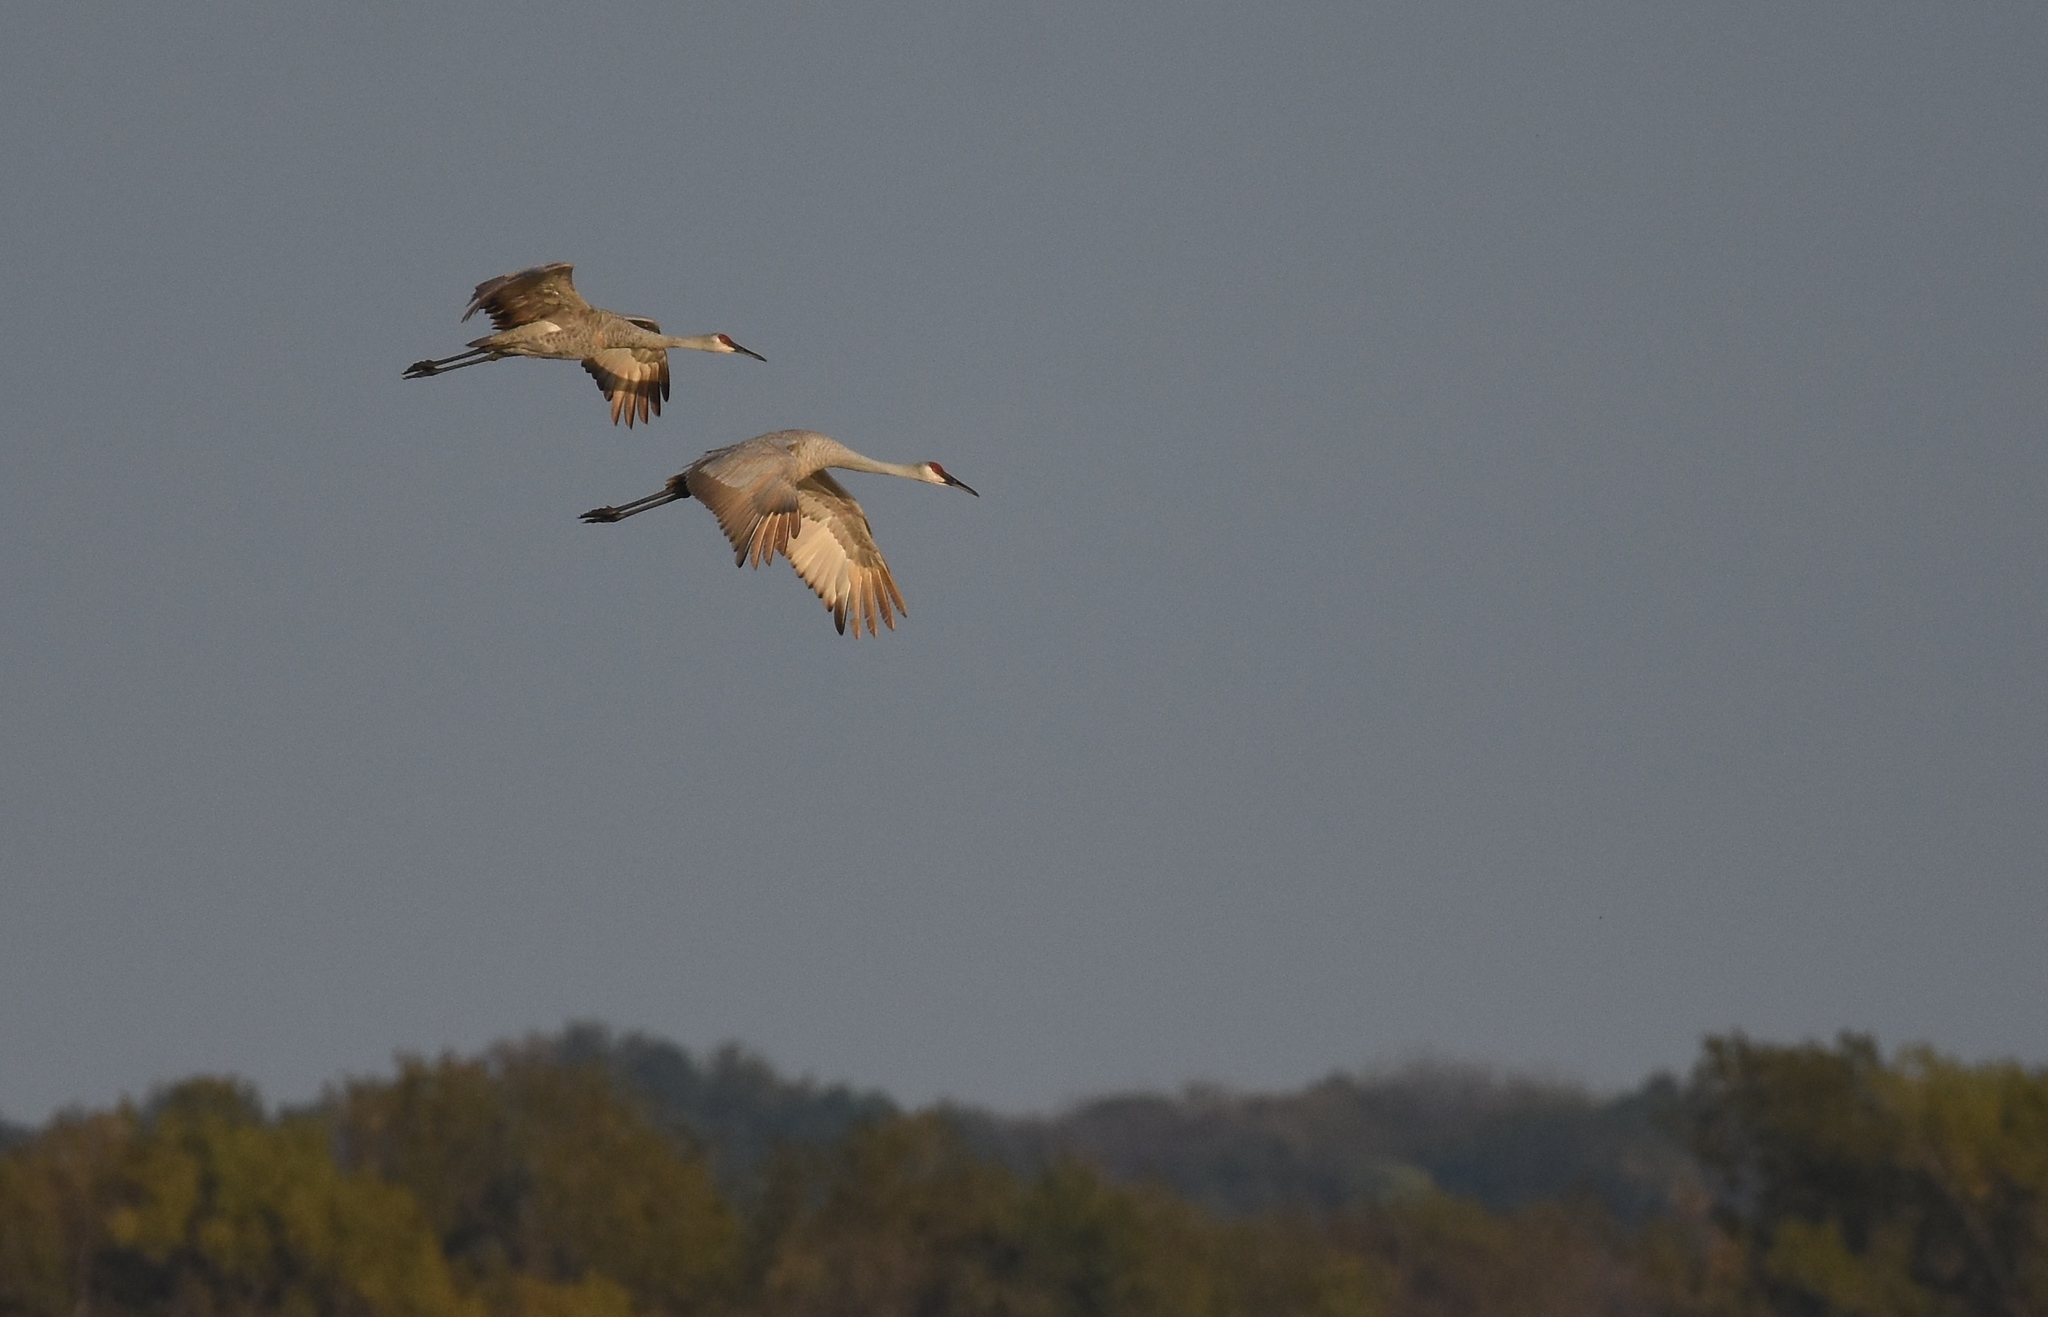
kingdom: Animalia
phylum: Chordata
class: Aves
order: Gruiformes
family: Gruidae
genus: Grus
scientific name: Grus canadensis
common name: Sandhill crane
